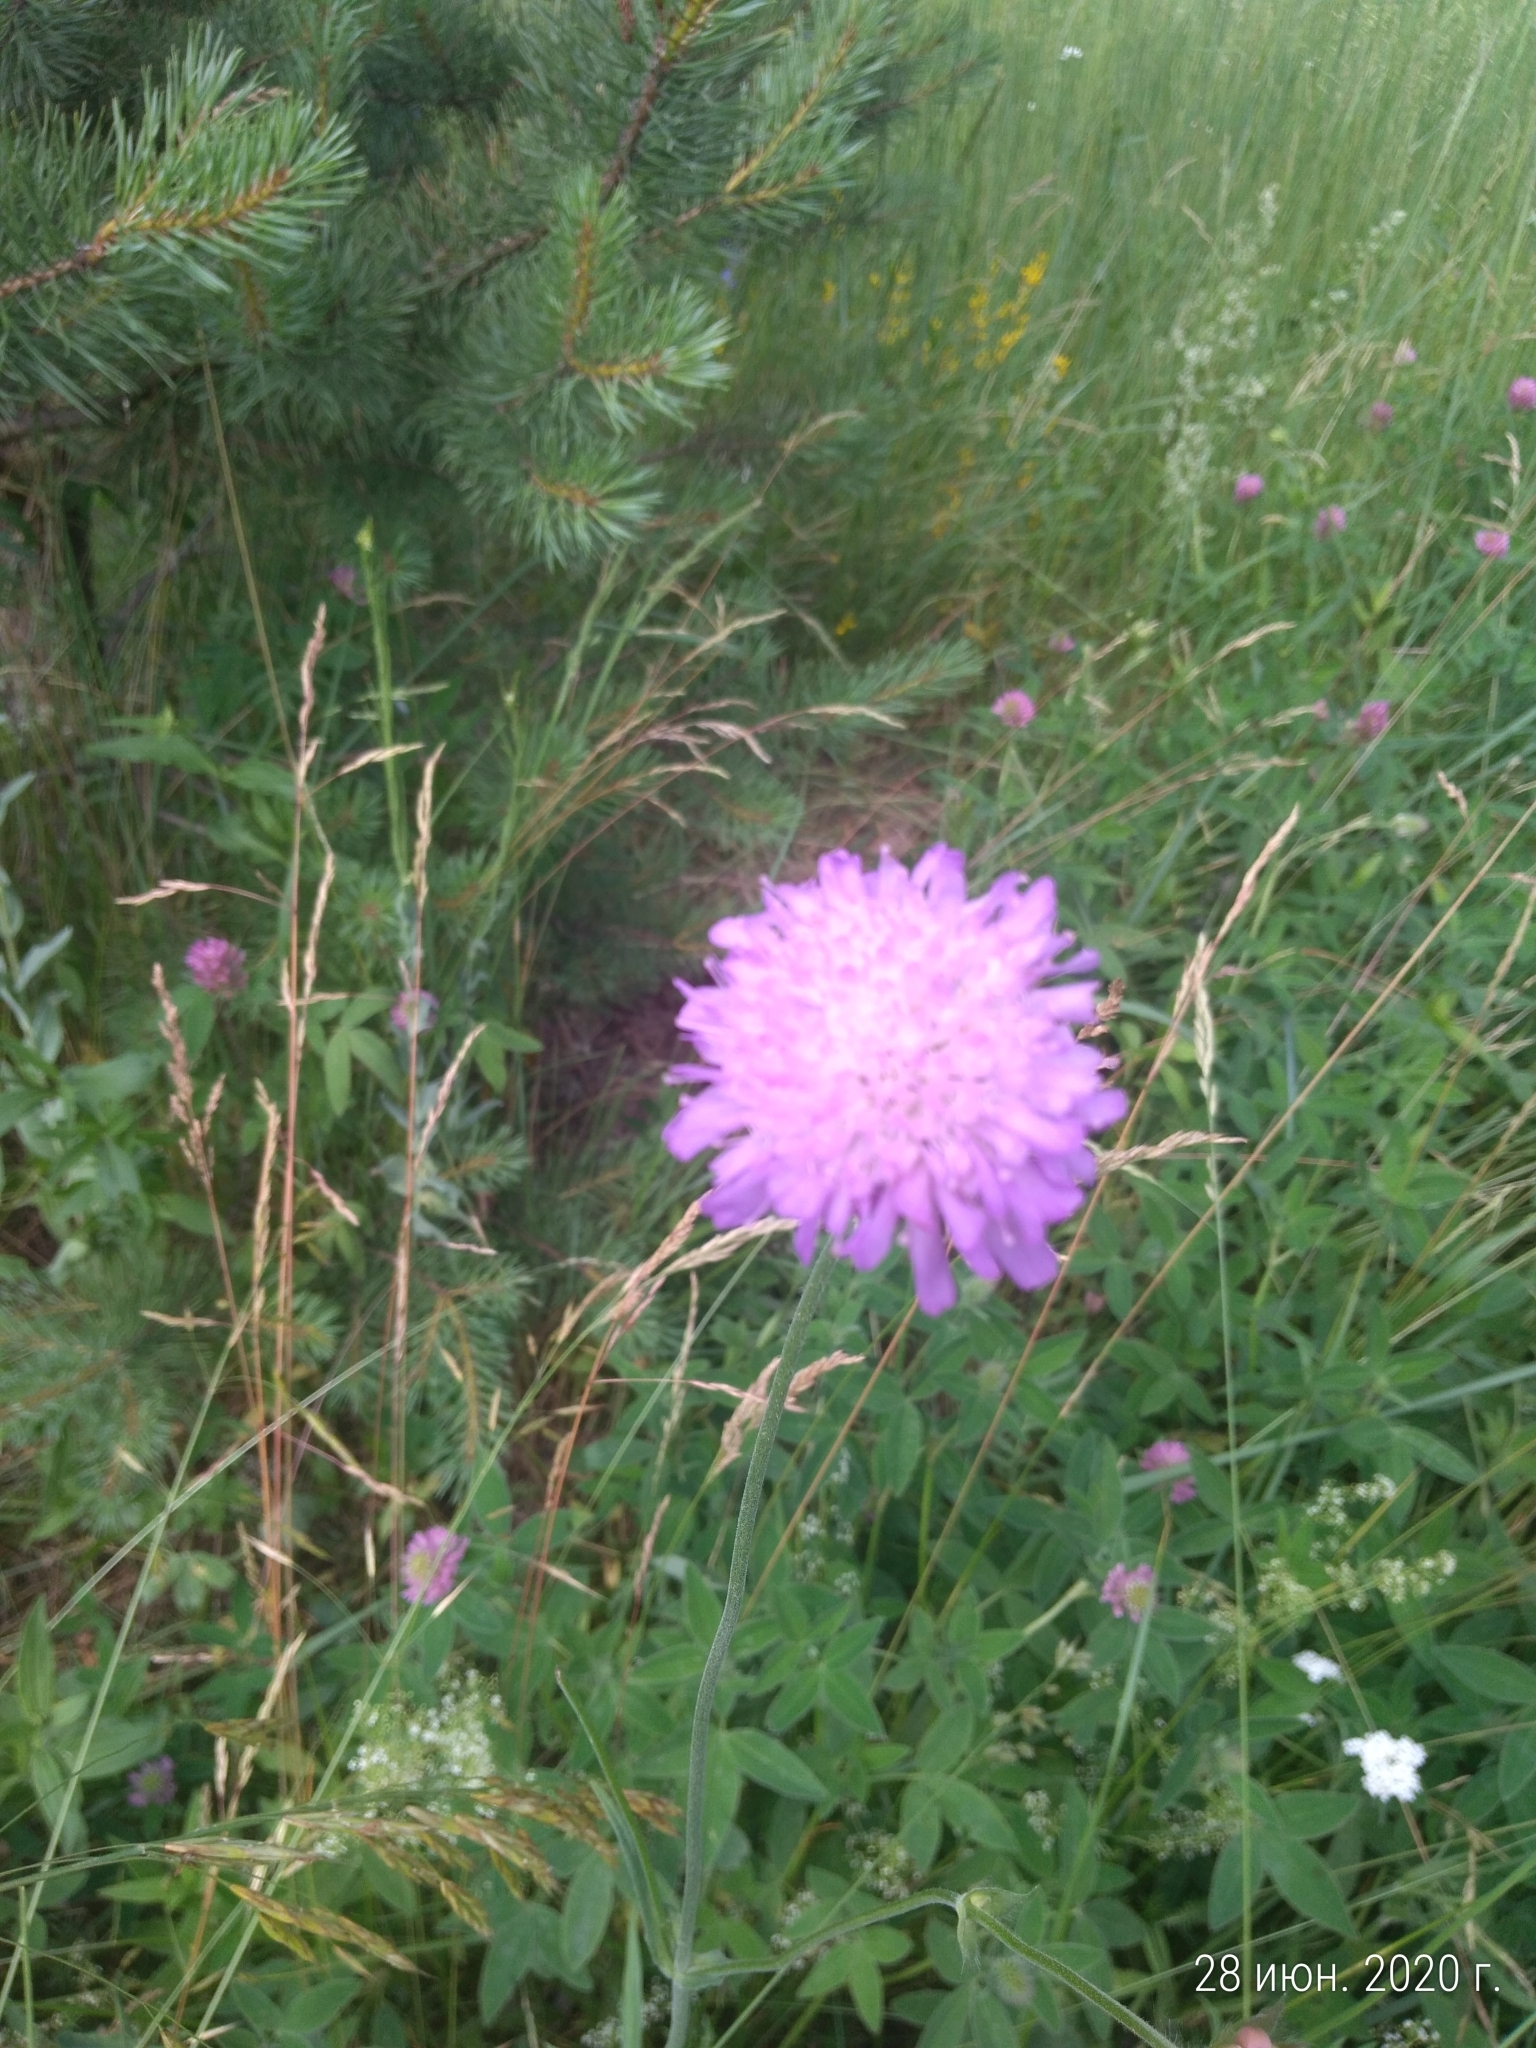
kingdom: Plantae
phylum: Tracheophyta
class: Magnoliopsida
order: Dipsacales
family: Caprifoliaceae
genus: Knautia
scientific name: Knautia arvensis
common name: Field scabiosa
